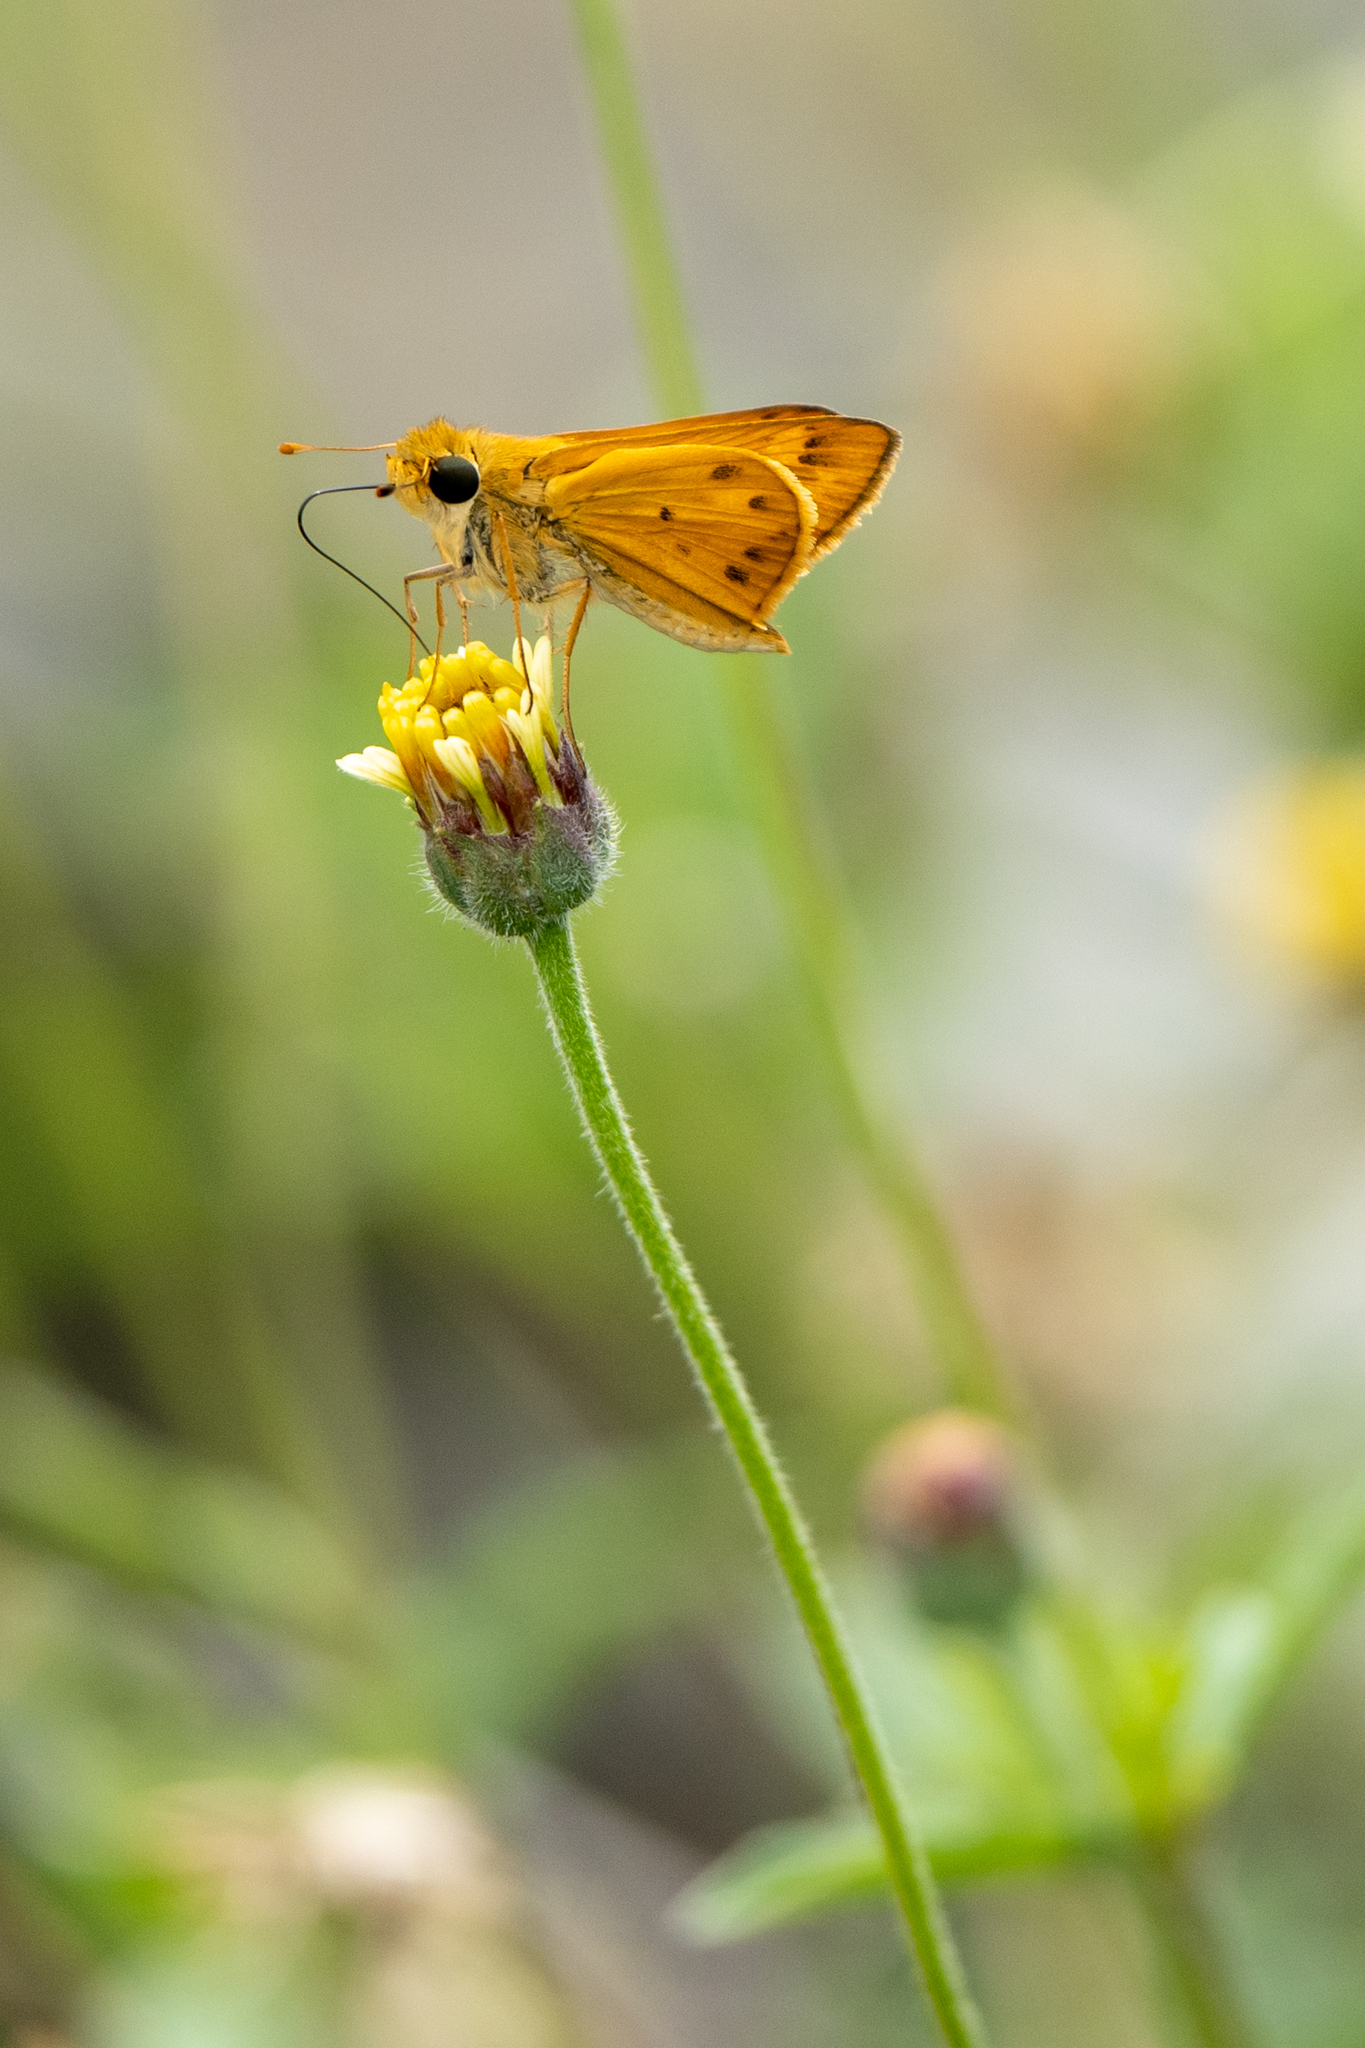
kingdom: Animalia
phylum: Arthropoda
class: Insecta
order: Lepidoptera
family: Hesperiidae
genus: Hylephila
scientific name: Hylephila phyleus
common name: Fiery skipper
